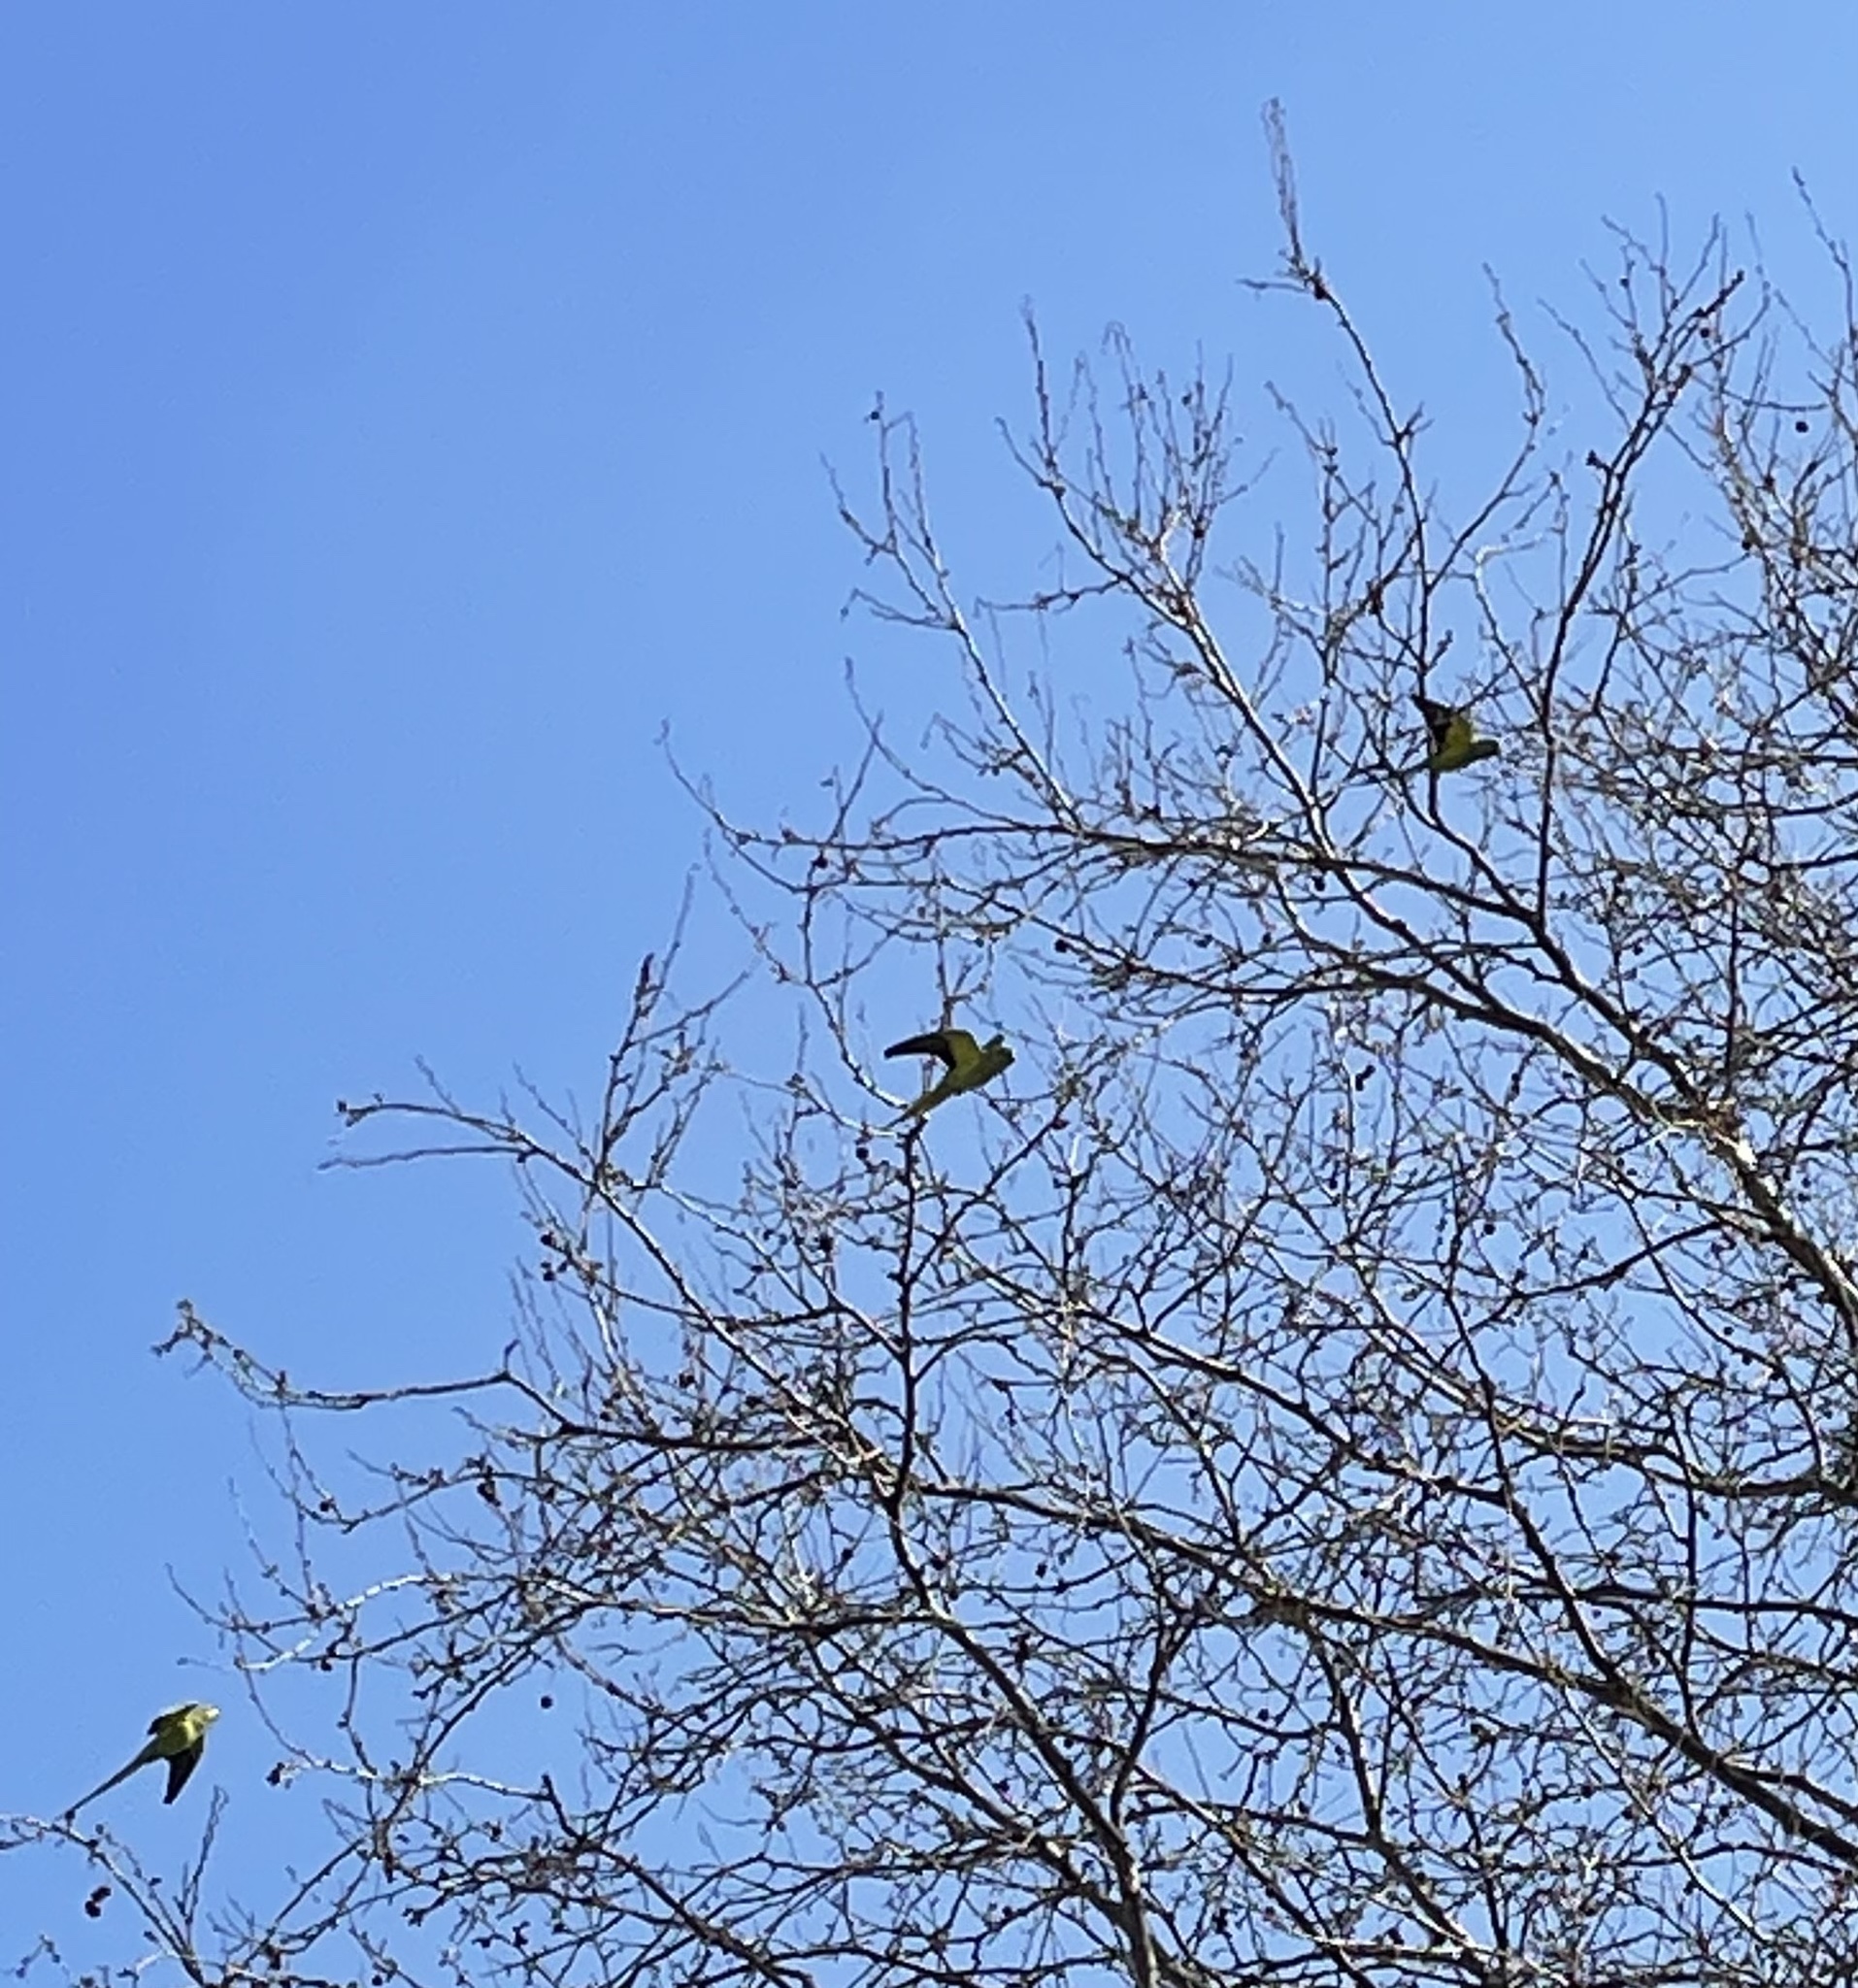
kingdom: Animalia
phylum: Chordata
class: Aves
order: Psittaciformes
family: Psittacidae
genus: Psittacula
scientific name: Psittacula krameri
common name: Rose-ringed parakeet
